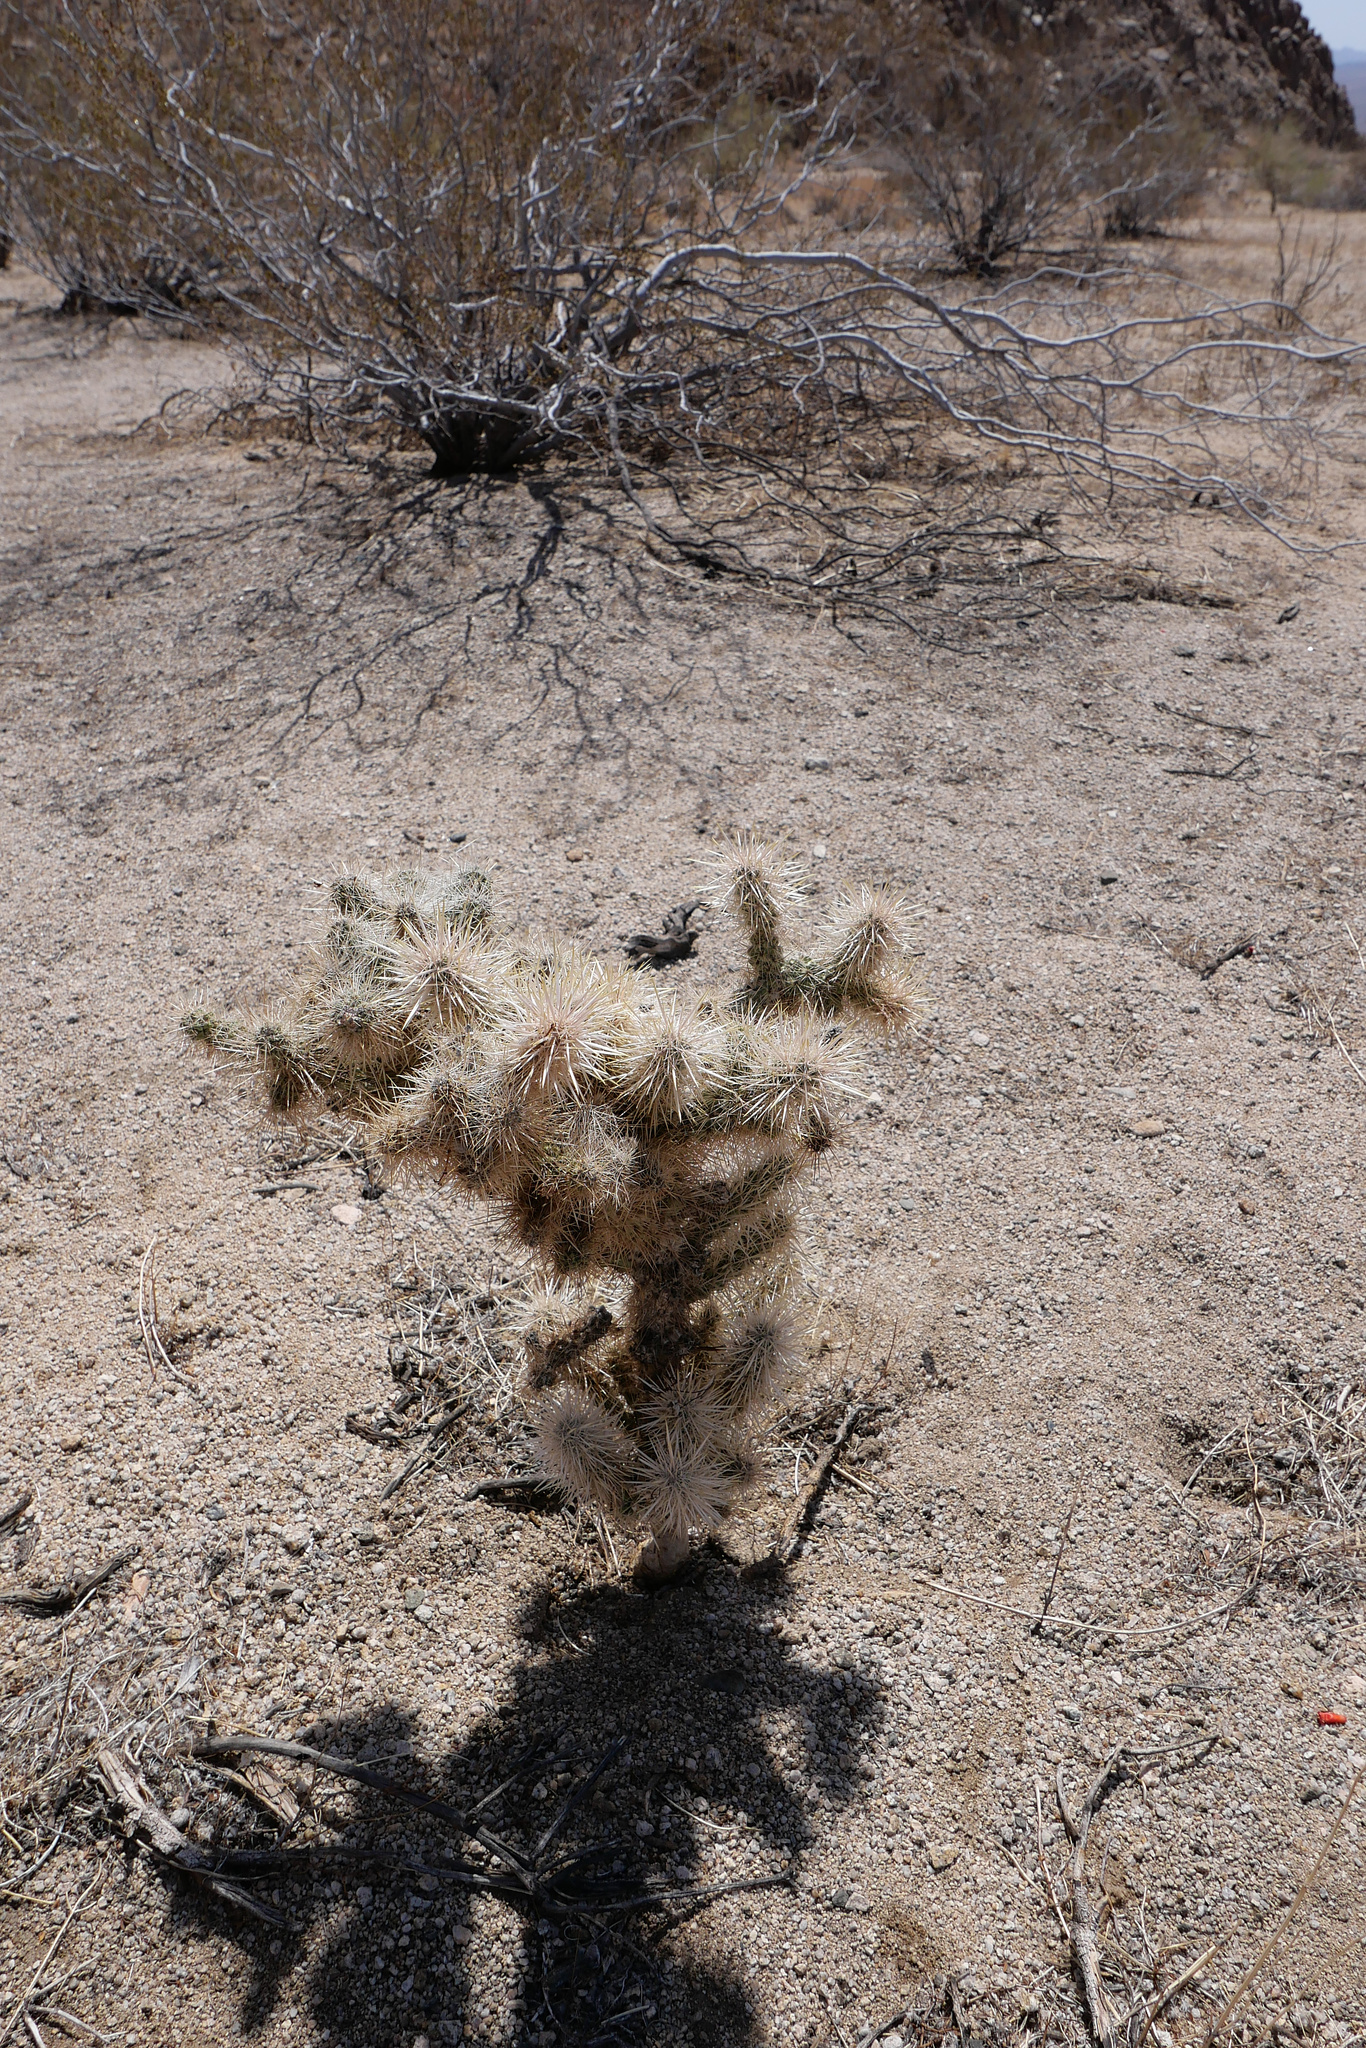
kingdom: Plantae
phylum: Tracheophyta
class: Magnoliopsida
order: Caryophyllales
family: Cactaceae
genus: Cylindropuntia
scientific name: Cylindropuntia echinocarpa
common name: Ground cholla
